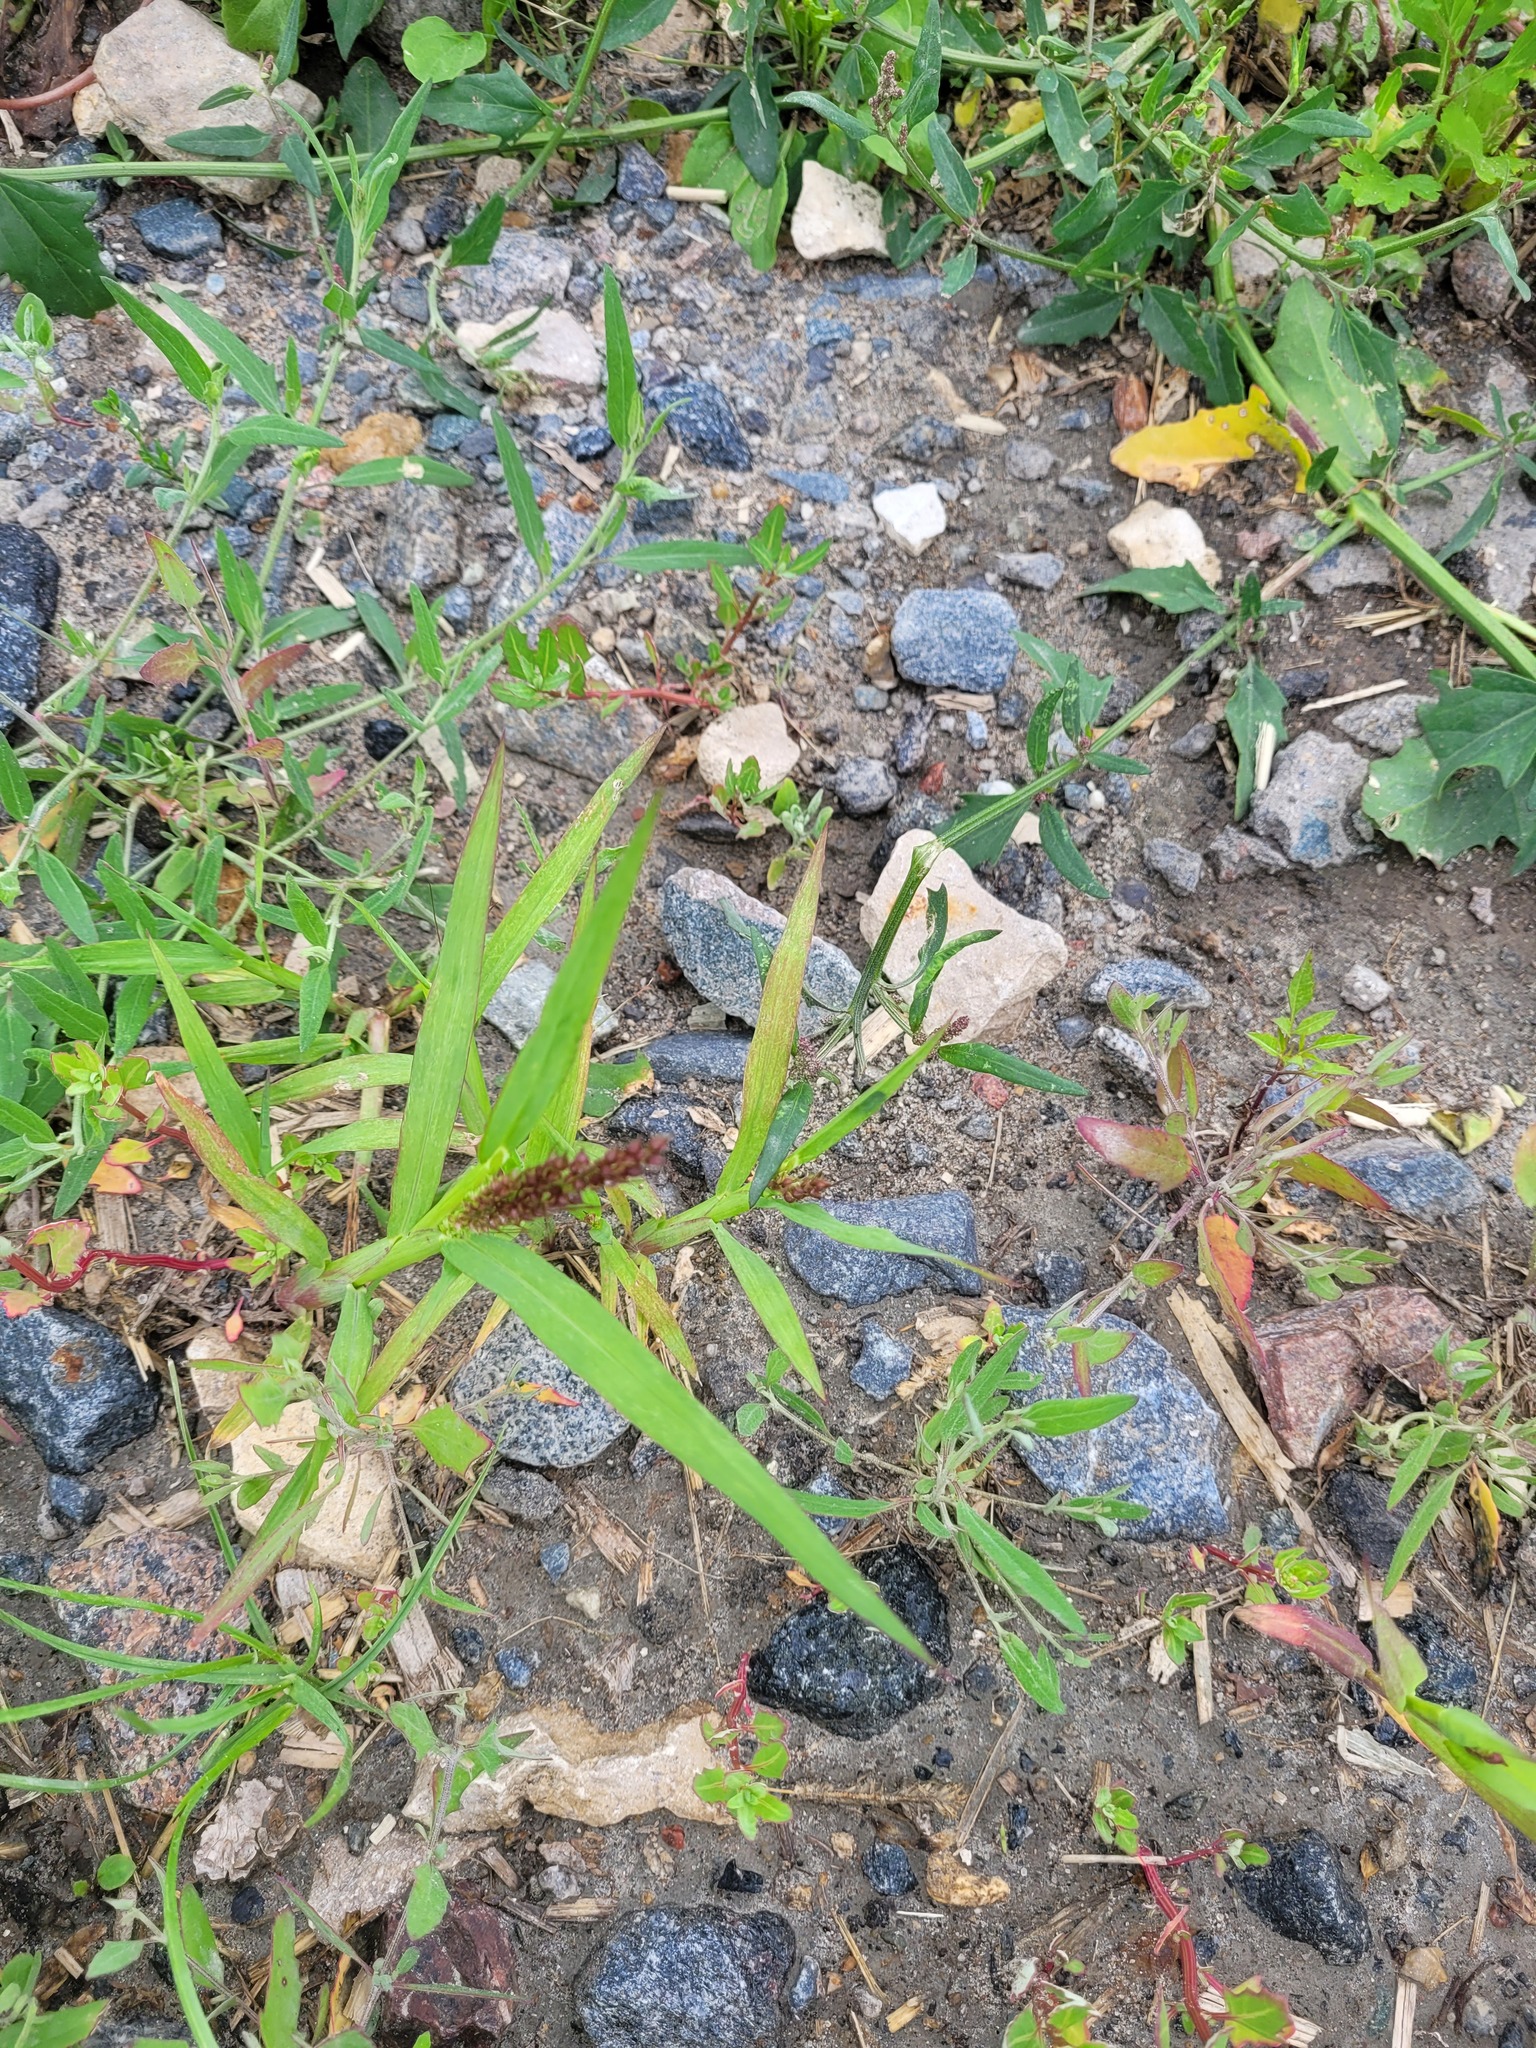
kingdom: Plantae
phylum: Tracheophyta
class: Liliopsida
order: Poales
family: Poaceae
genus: Echinochloa
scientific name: Echinochloa crus-galli
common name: Cockspur
